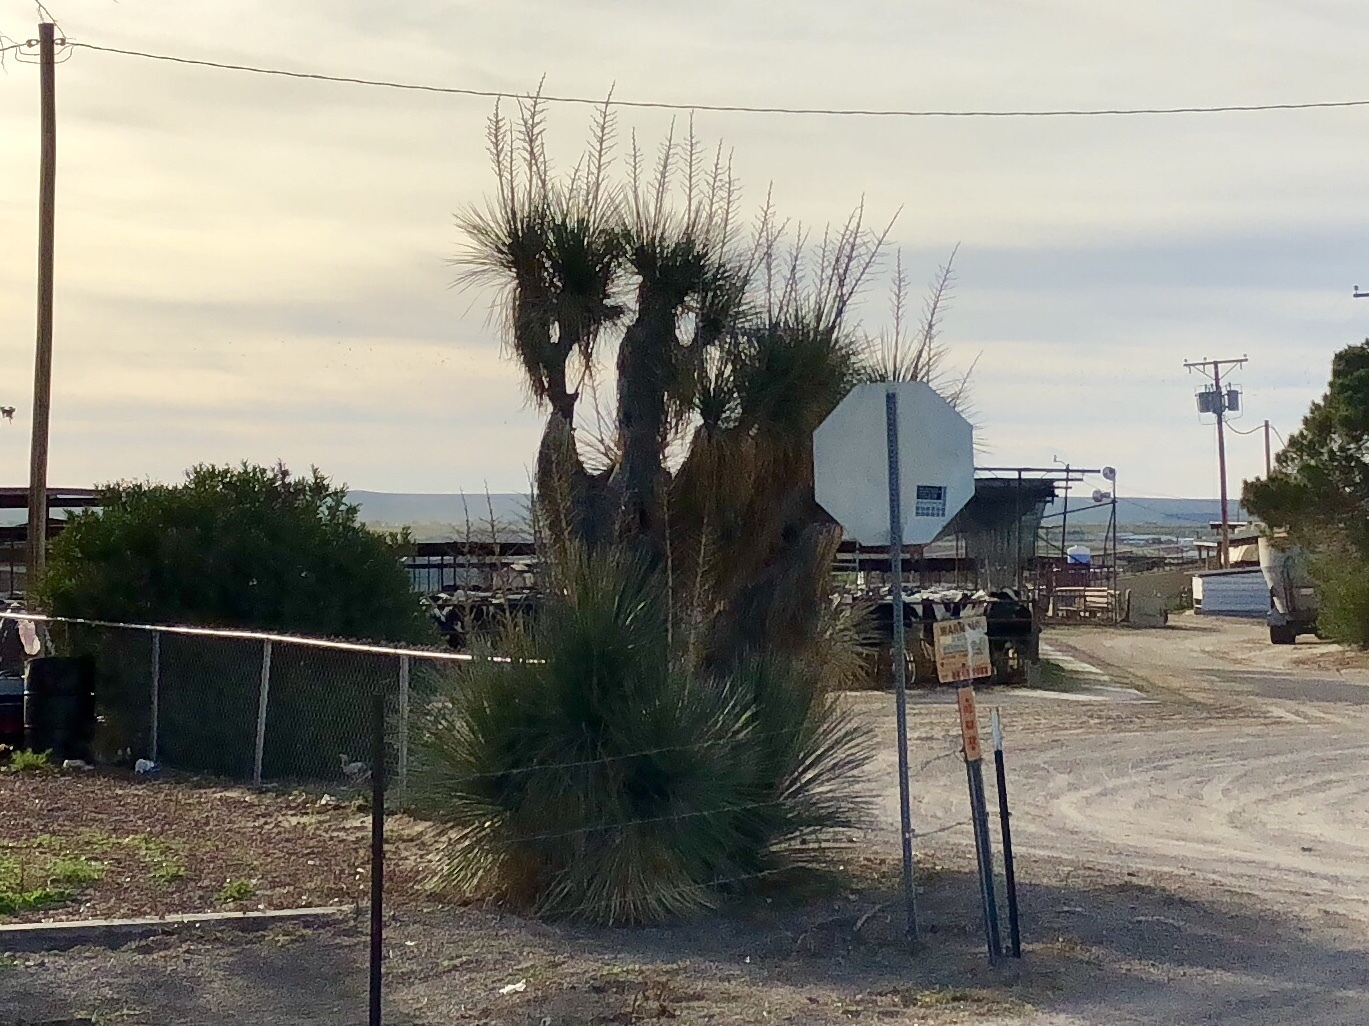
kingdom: Plantae
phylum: Tracheophyta
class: Liliopsida
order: Asparagales
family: Asparagaceae
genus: Yucca
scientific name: Yucca elata
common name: Palmella
